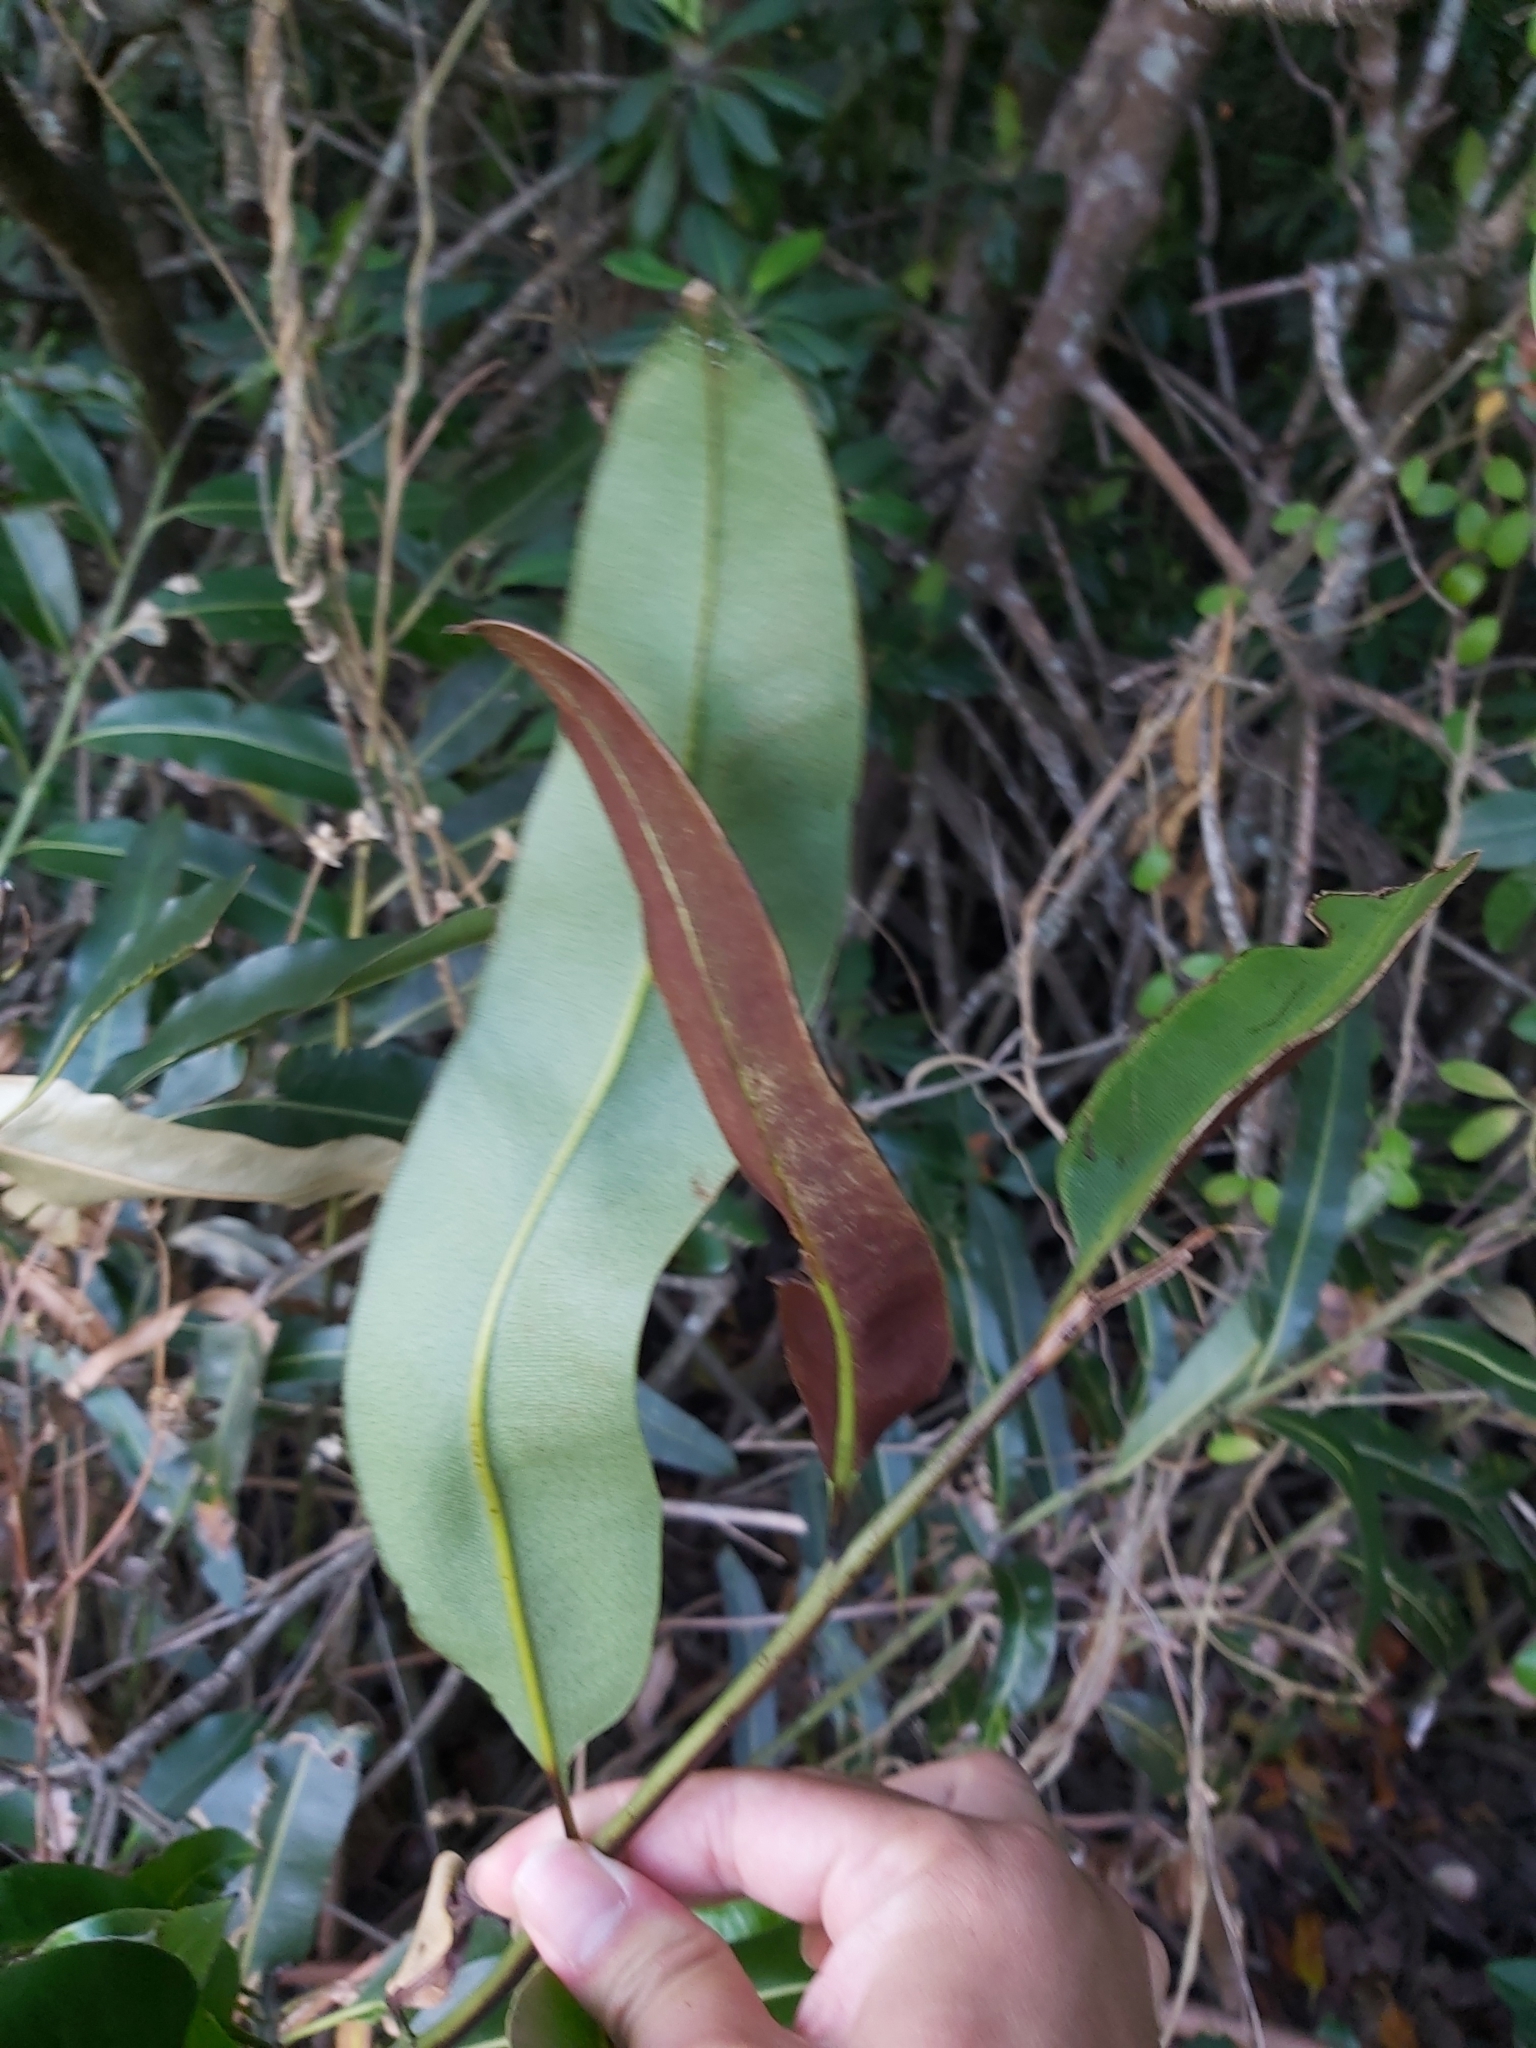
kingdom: Plantae
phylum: Tracheophyta
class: Polypodiopsida
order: Polypodiales
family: Pteridaceae
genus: Acrostichum
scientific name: Acrostichum speciosum
